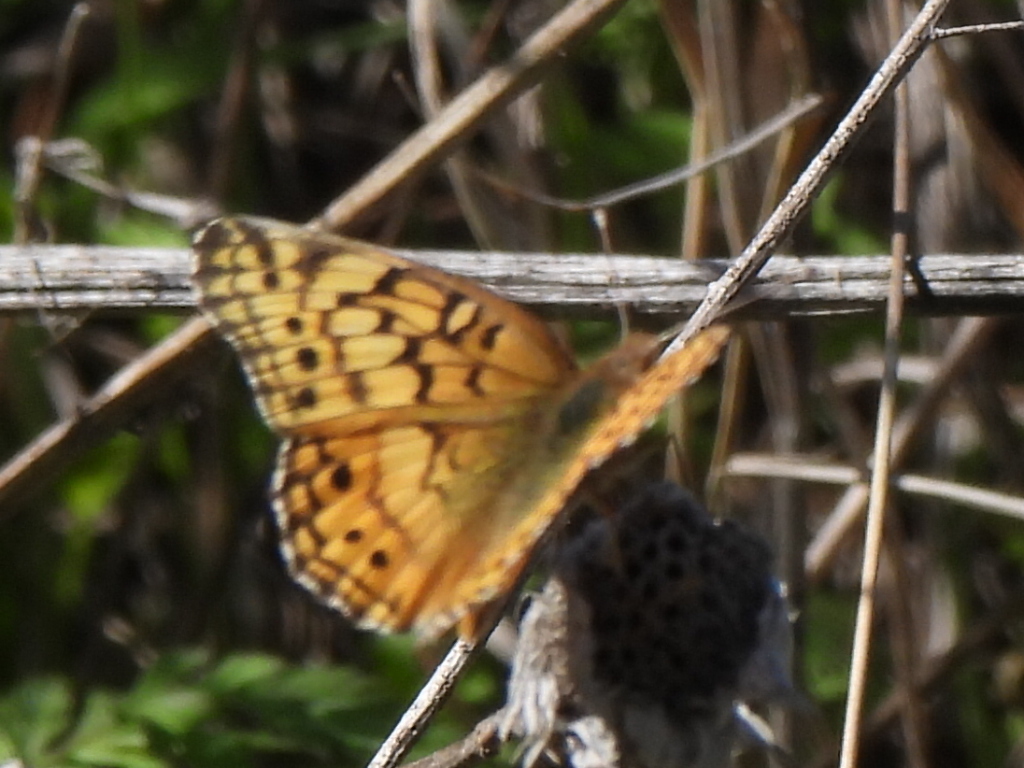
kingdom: Animalia
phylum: Arthropoda
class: Insecta
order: Lepidoptera
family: Nymphalidae
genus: Euptoieta
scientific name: Euptoieta claudia
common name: Variegated fritillary
